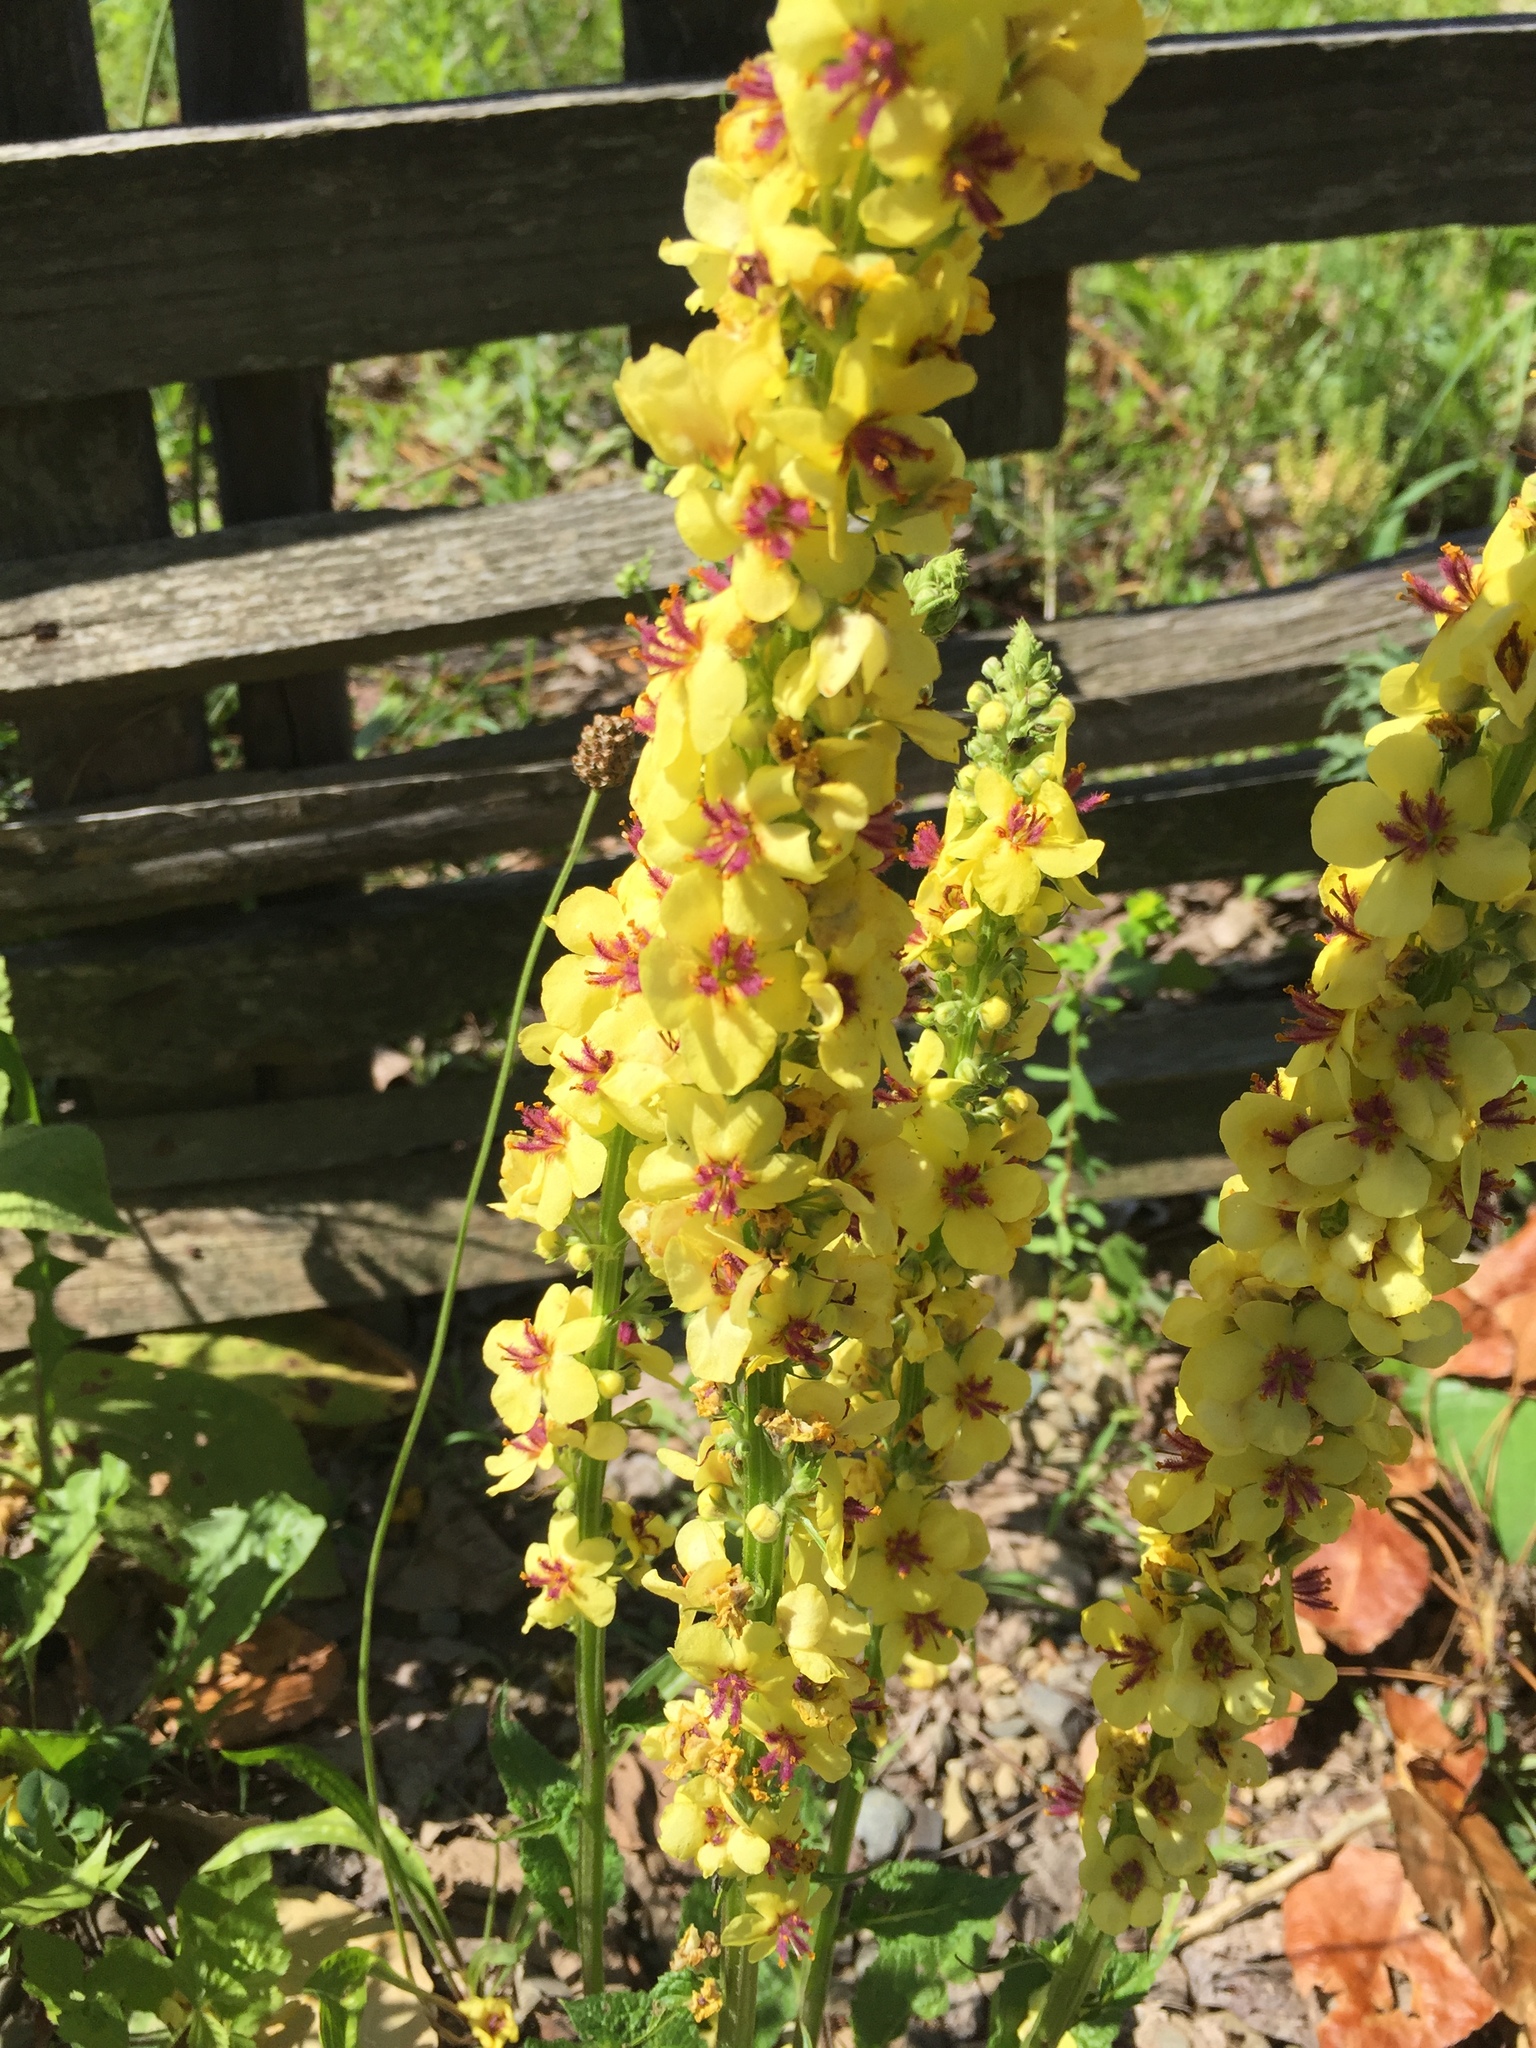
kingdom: Plantae
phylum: Tracheophyta
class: Magnoliopsida
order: Lamiales
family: Scrophulariaceae
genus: Verbascum
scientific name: Verbascum nigrum
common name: Dark mullein
